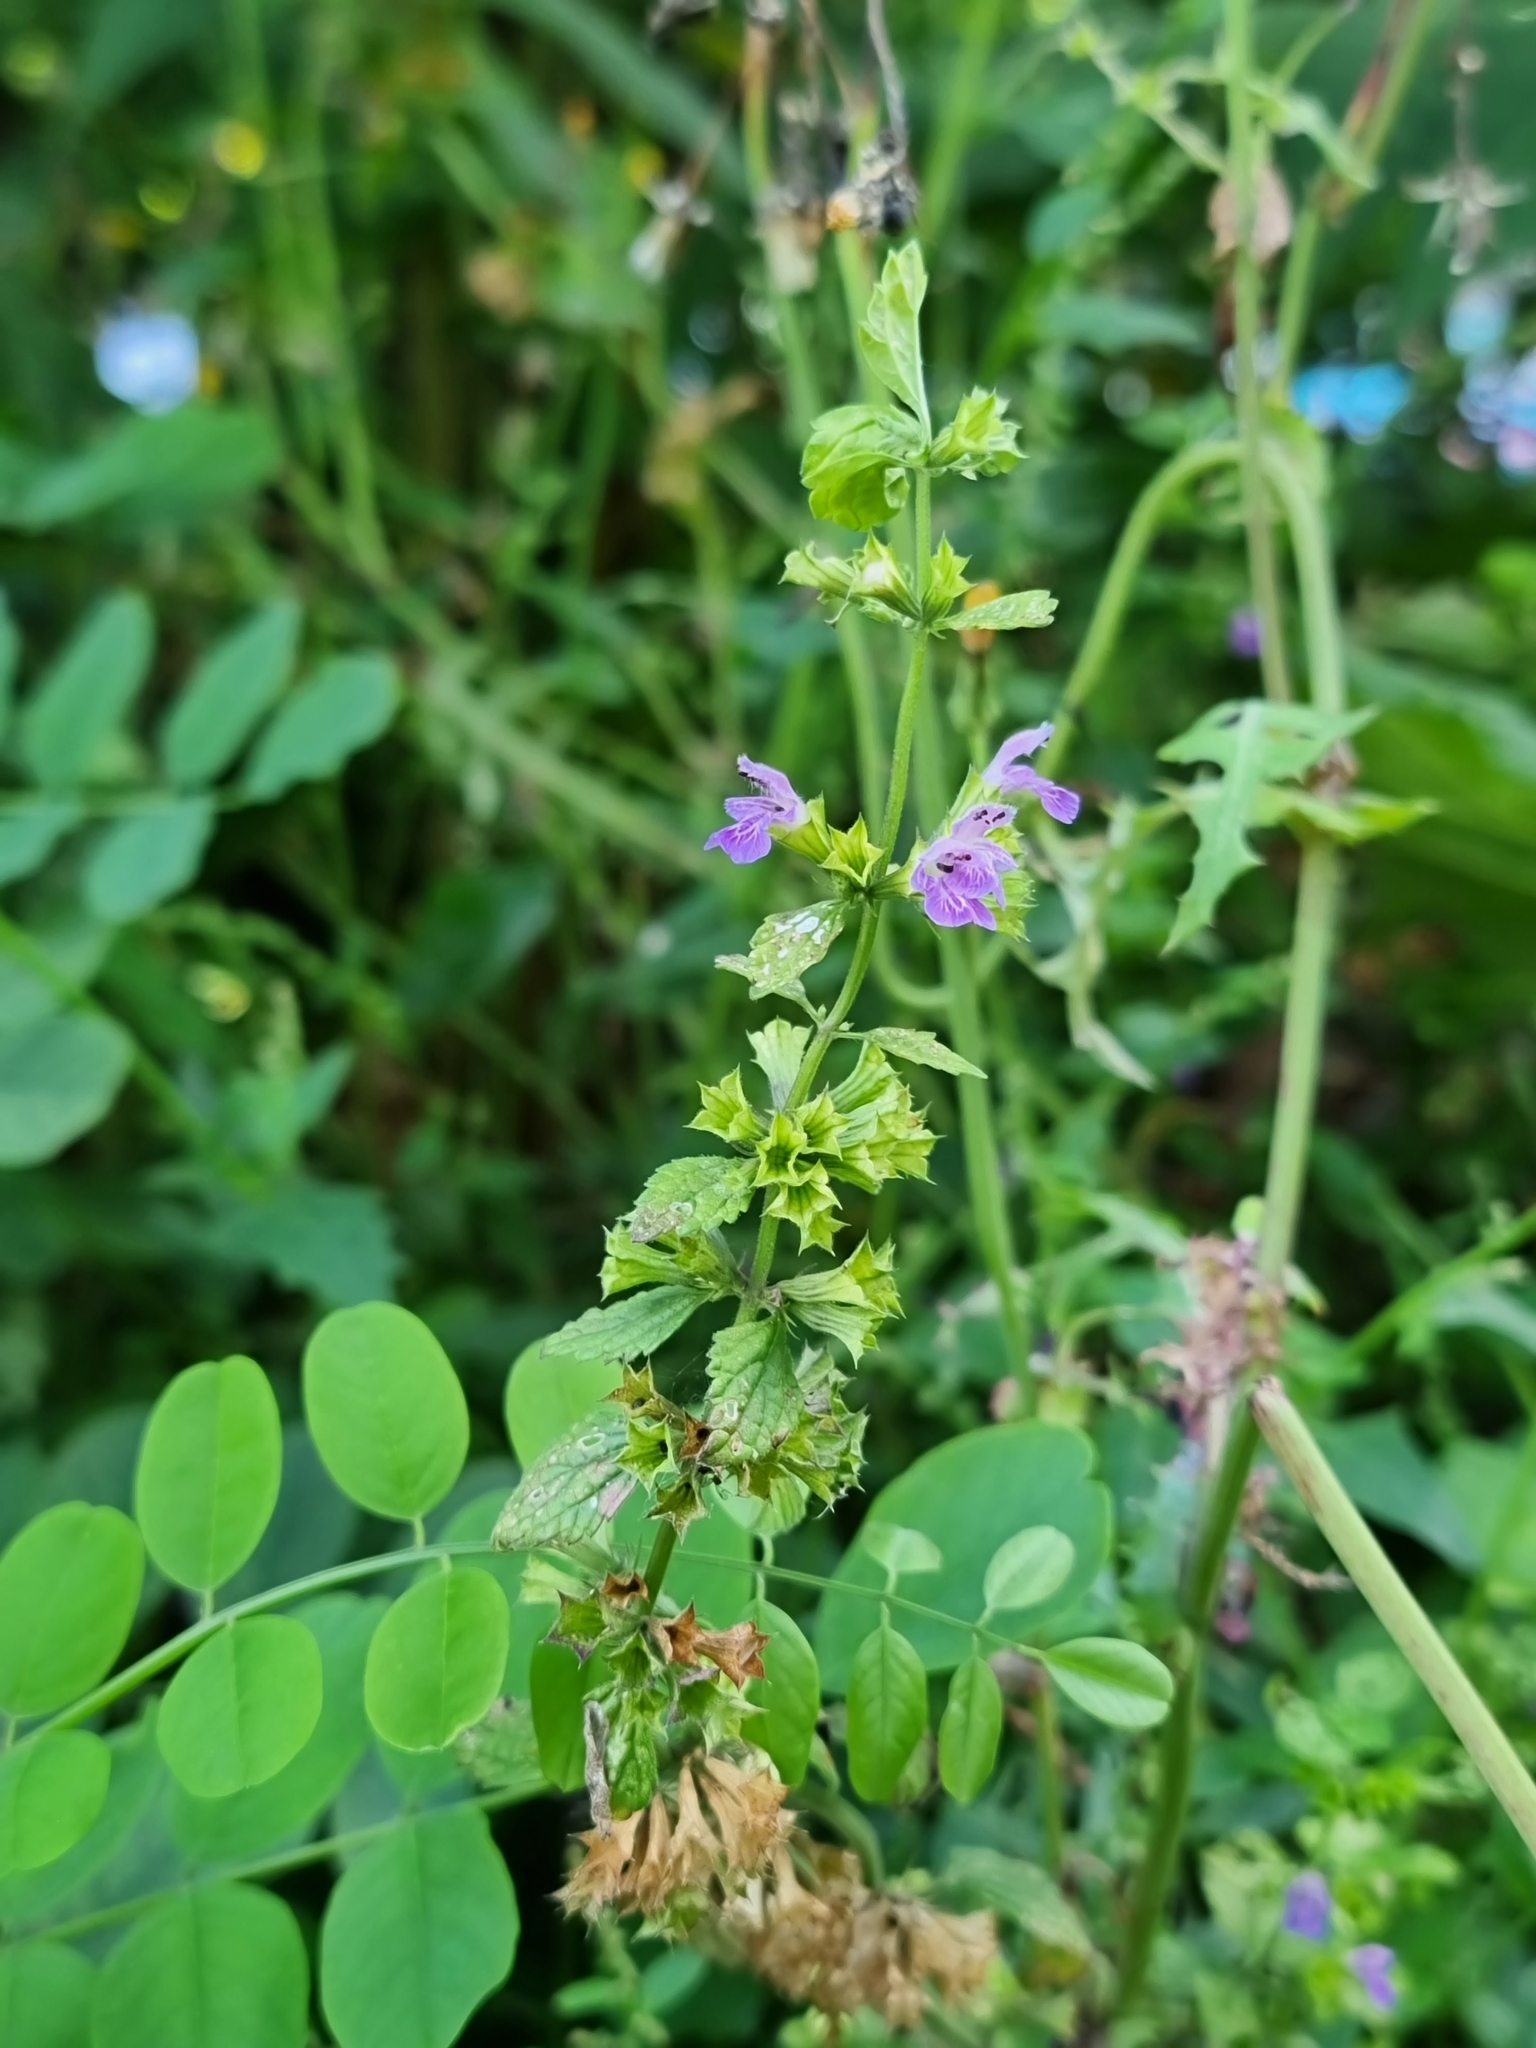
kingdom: Plantae
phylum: Tracheophyta
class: Magnoliopsida
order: Lamiales
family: Lamiaceae
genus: Ballota
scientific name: Ballota nigra
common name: Black horehound
